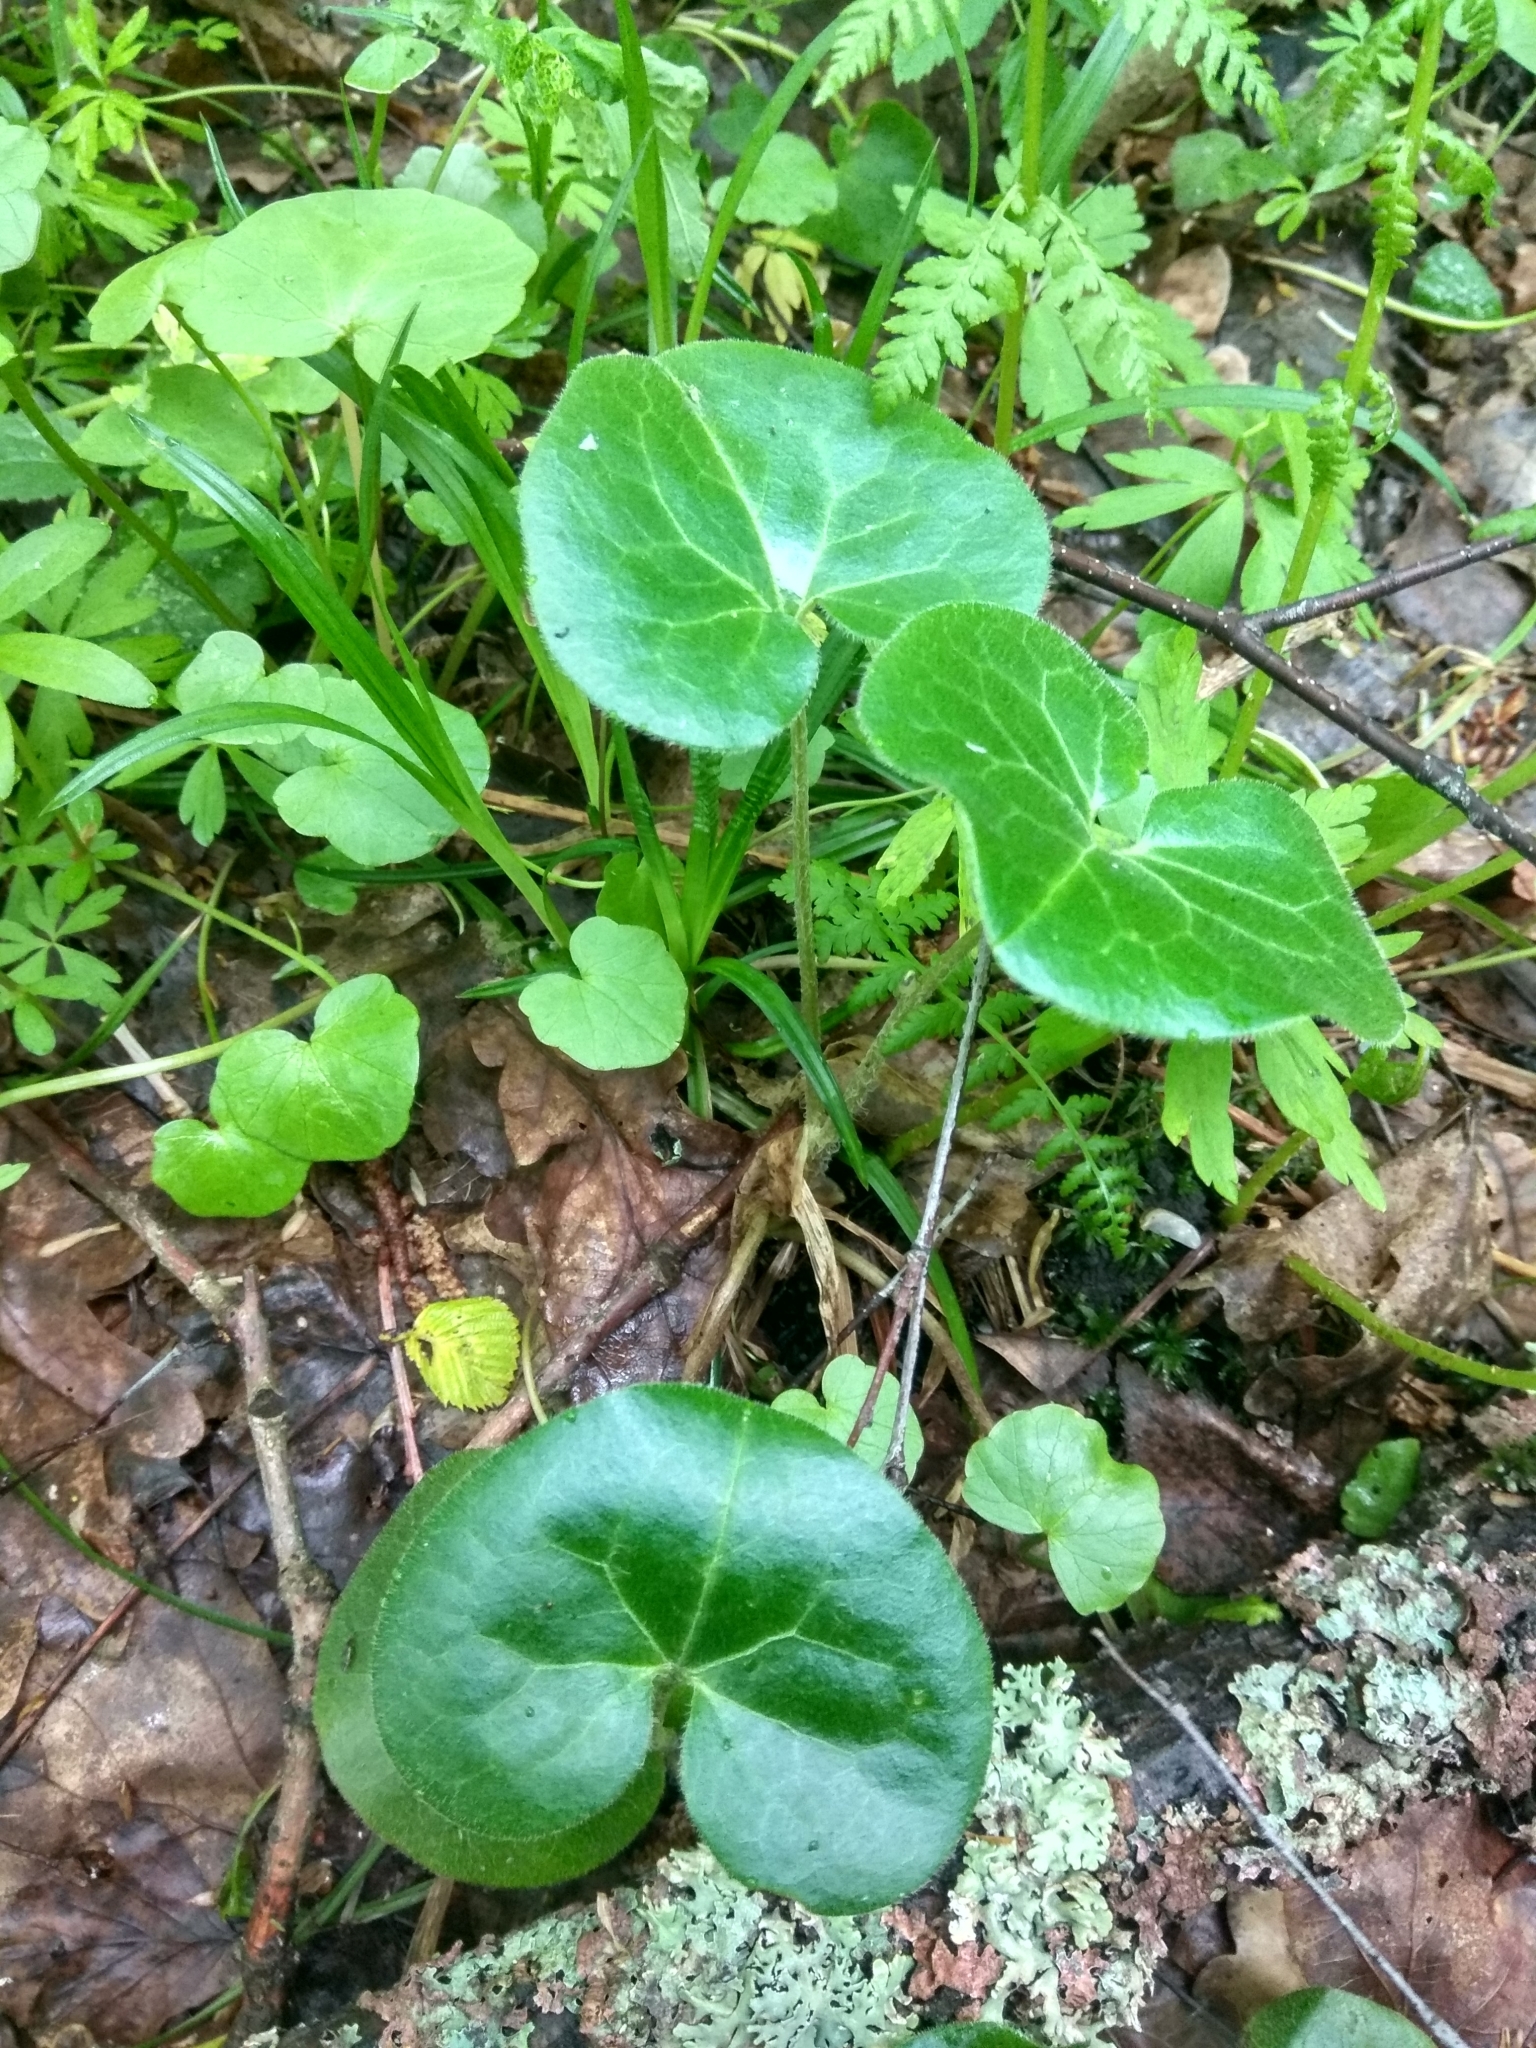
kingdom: Plantae
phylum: Tracheophyta
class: Magnoliopsida
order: Piperales
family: Aristolochiaceae
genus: Asarum
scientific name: Asarum europaeum
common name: Asarabacca
